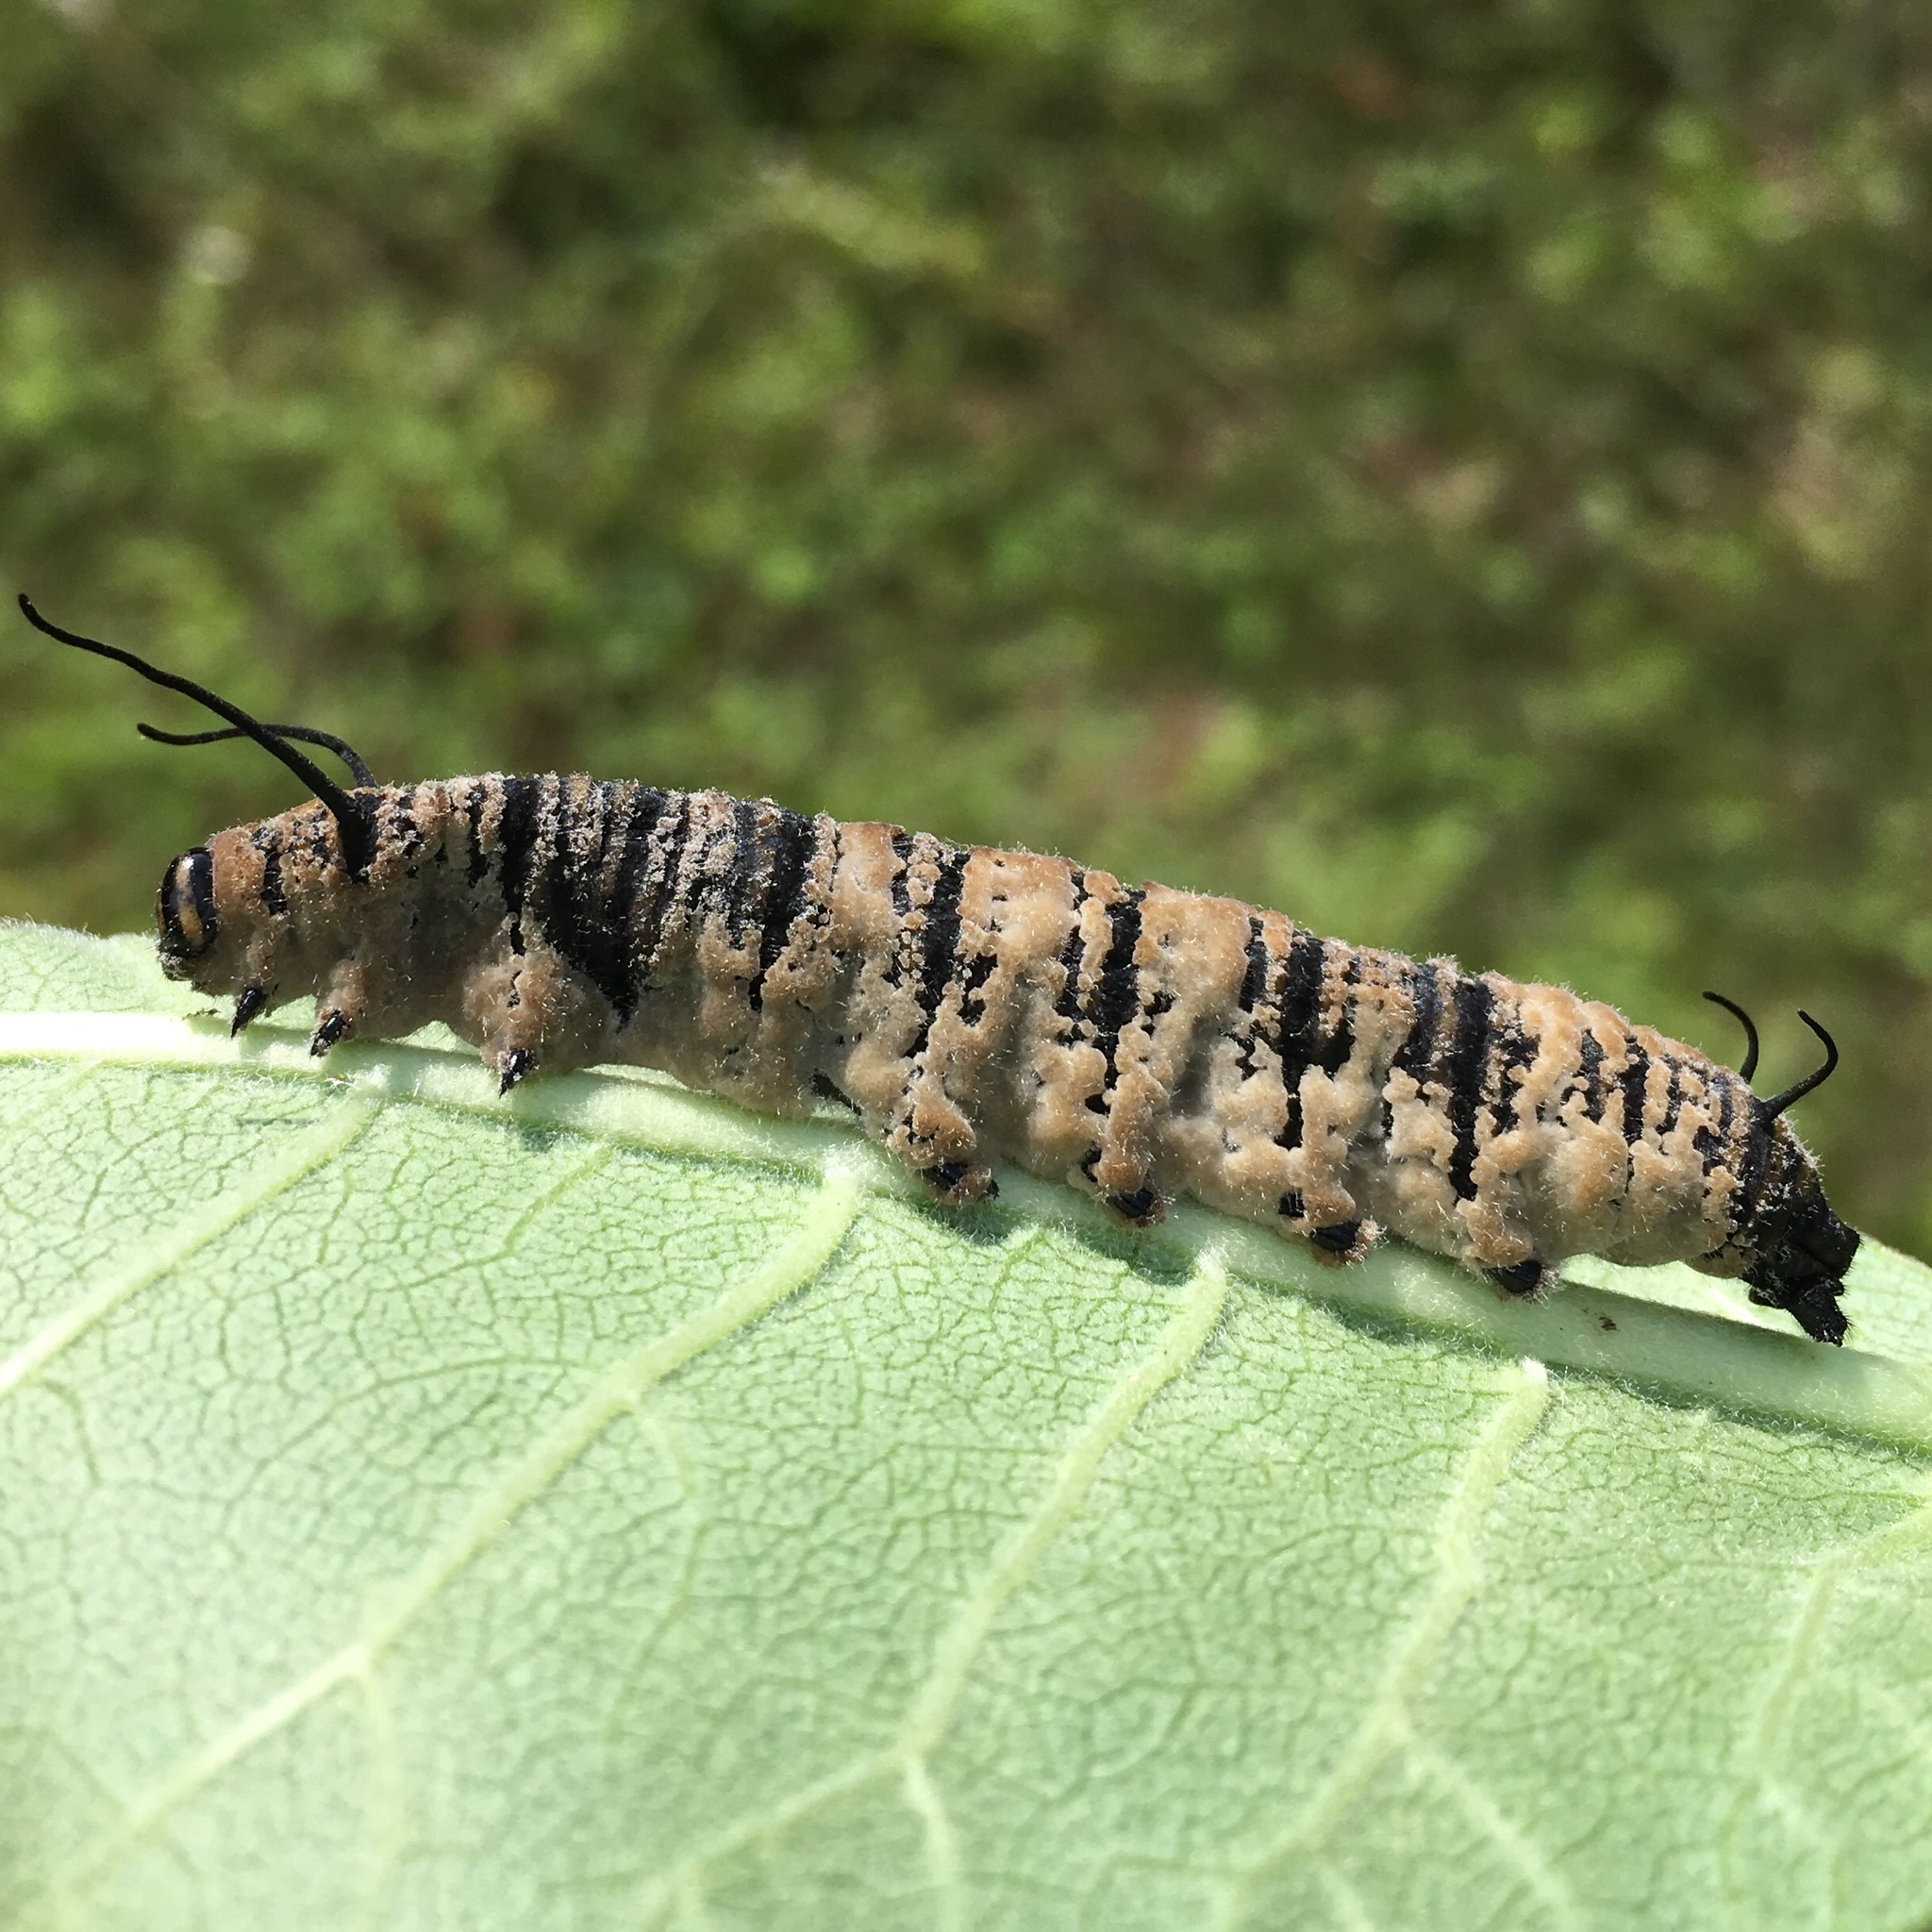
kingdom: Animalia
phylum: Arthropoda
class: Insecta
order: Lepidoptera
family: Nymphalidae
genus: Danaus
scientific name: Danaus plexippus
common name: Monarch
